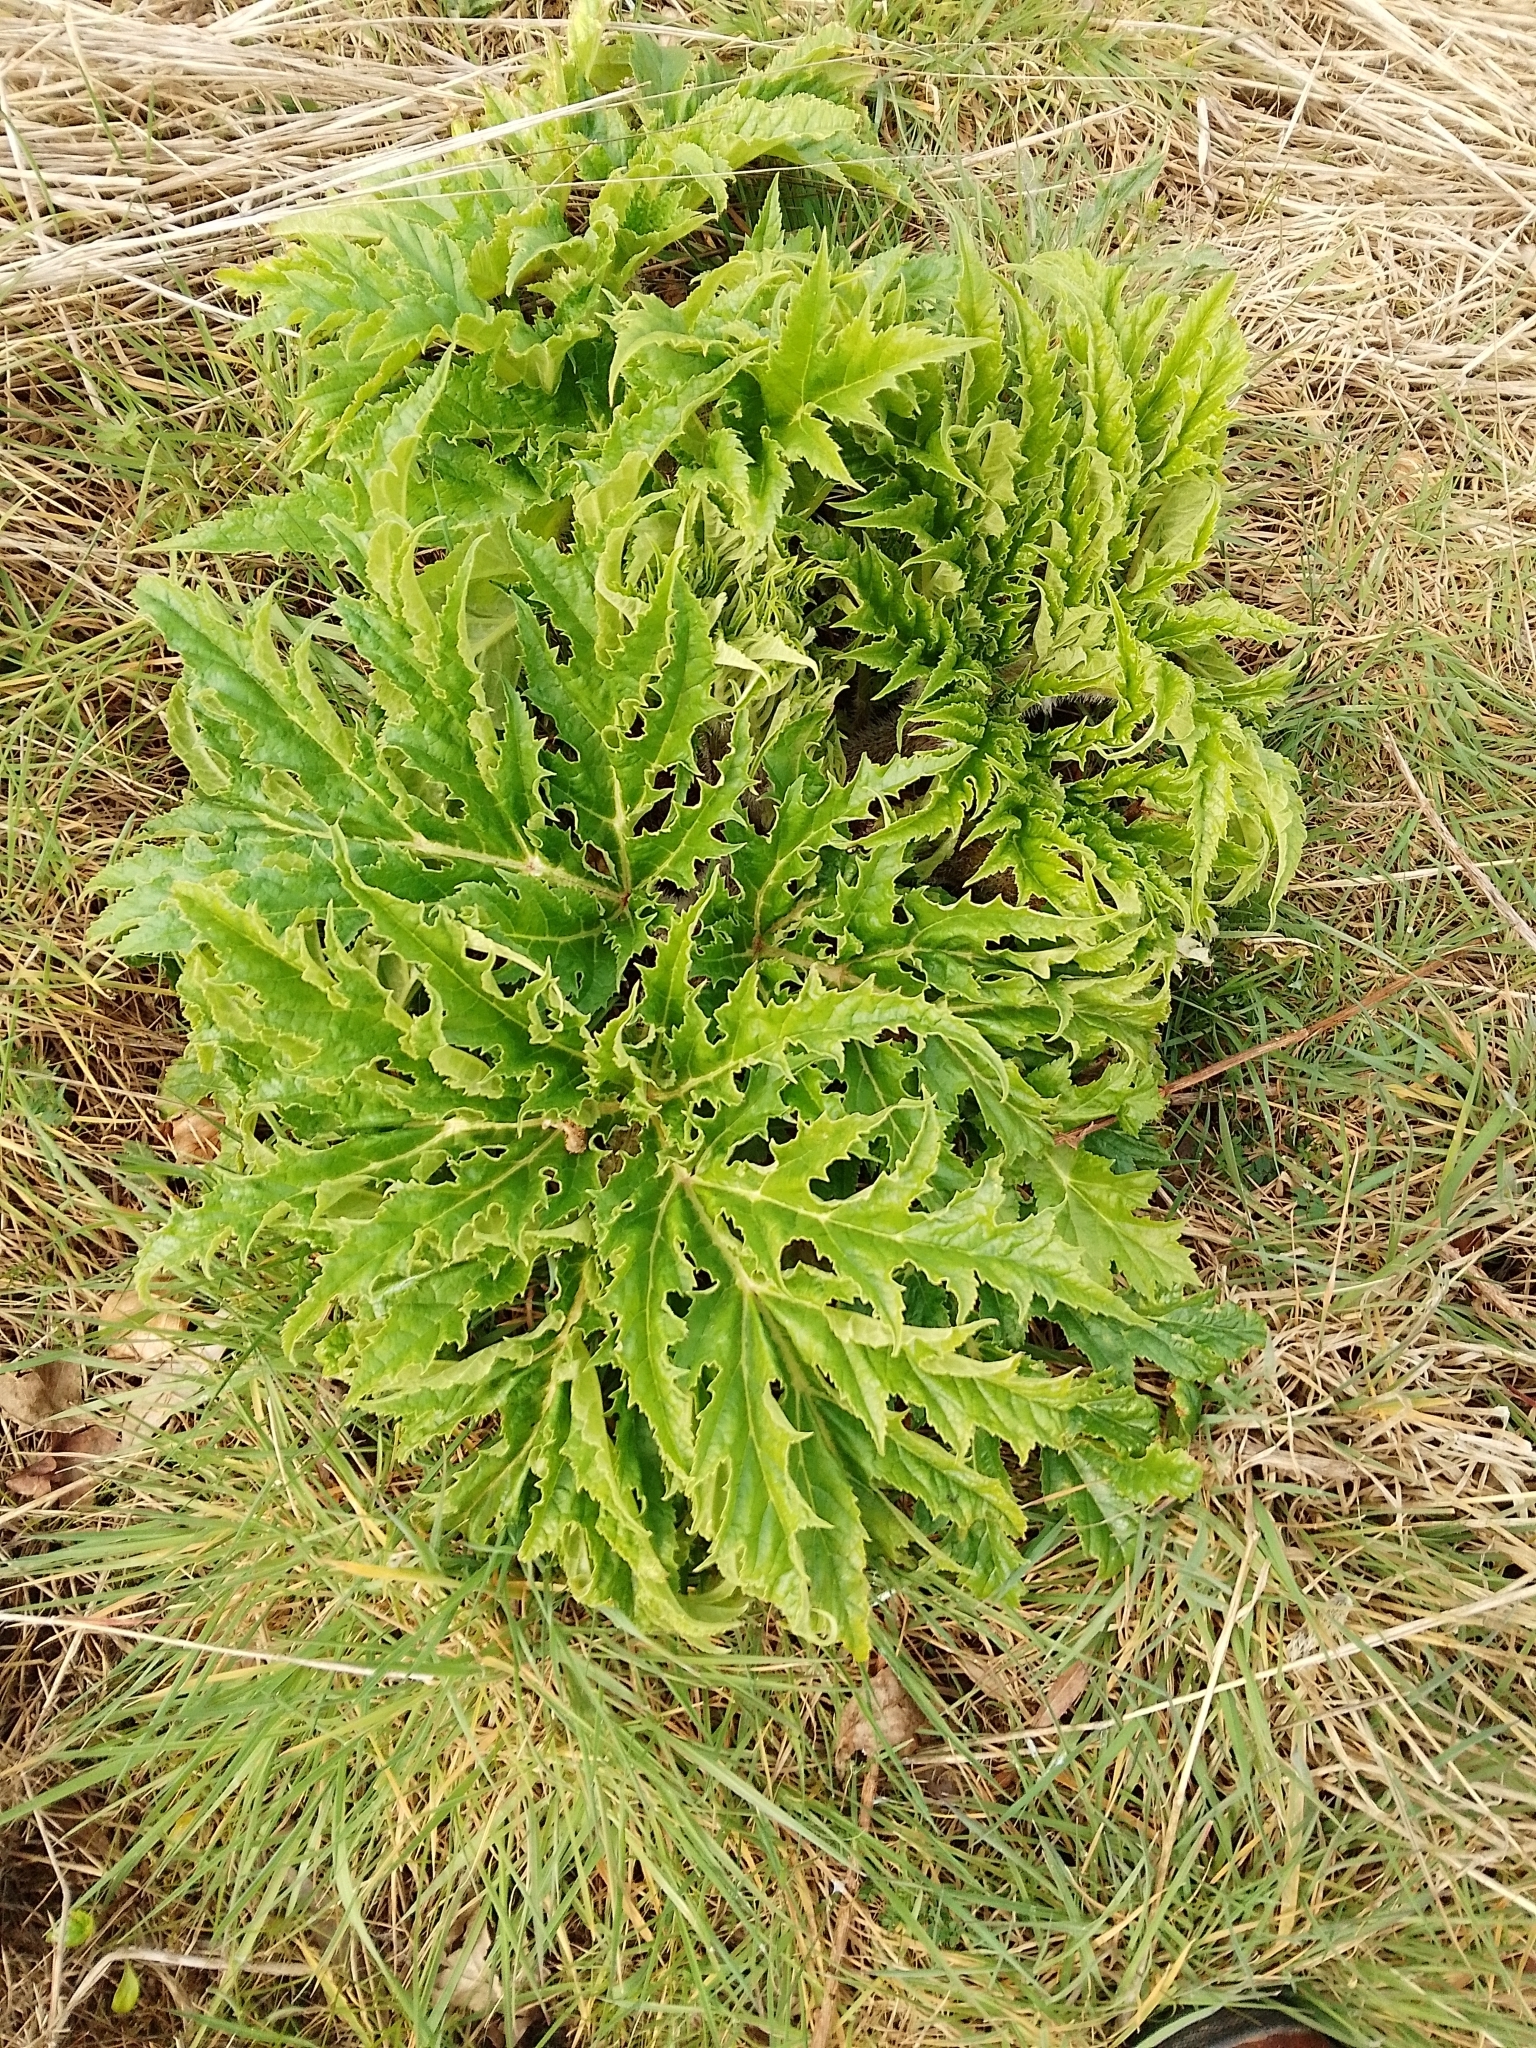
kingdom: Plantae
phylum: Tracheophyta
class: Magnoliopsida
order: Apiales
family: Apiaceae
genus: Heracleum
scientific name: Heracleum mantegazzianum
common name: Giant hogweed
